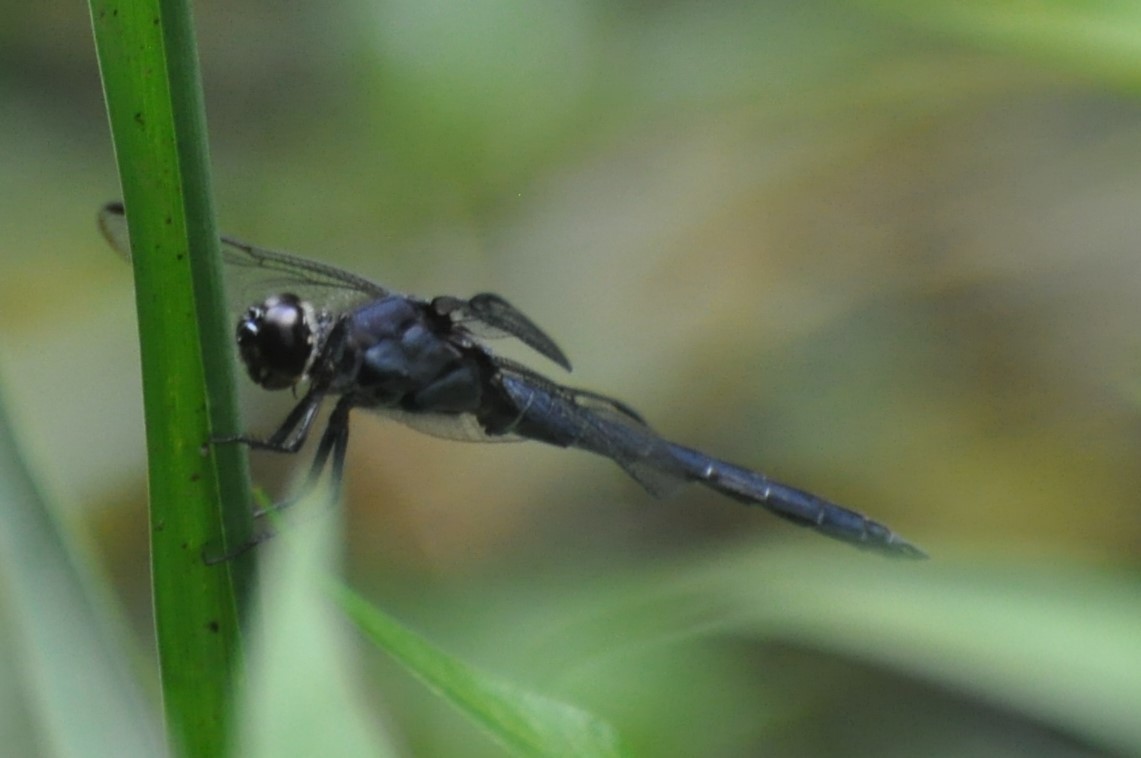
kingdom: Animalia
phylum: Arthropoda
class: Insecta
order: Odonata
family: Libellulidae
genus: Libellula
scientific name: Libellula incesta
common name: Slaty skimmer
